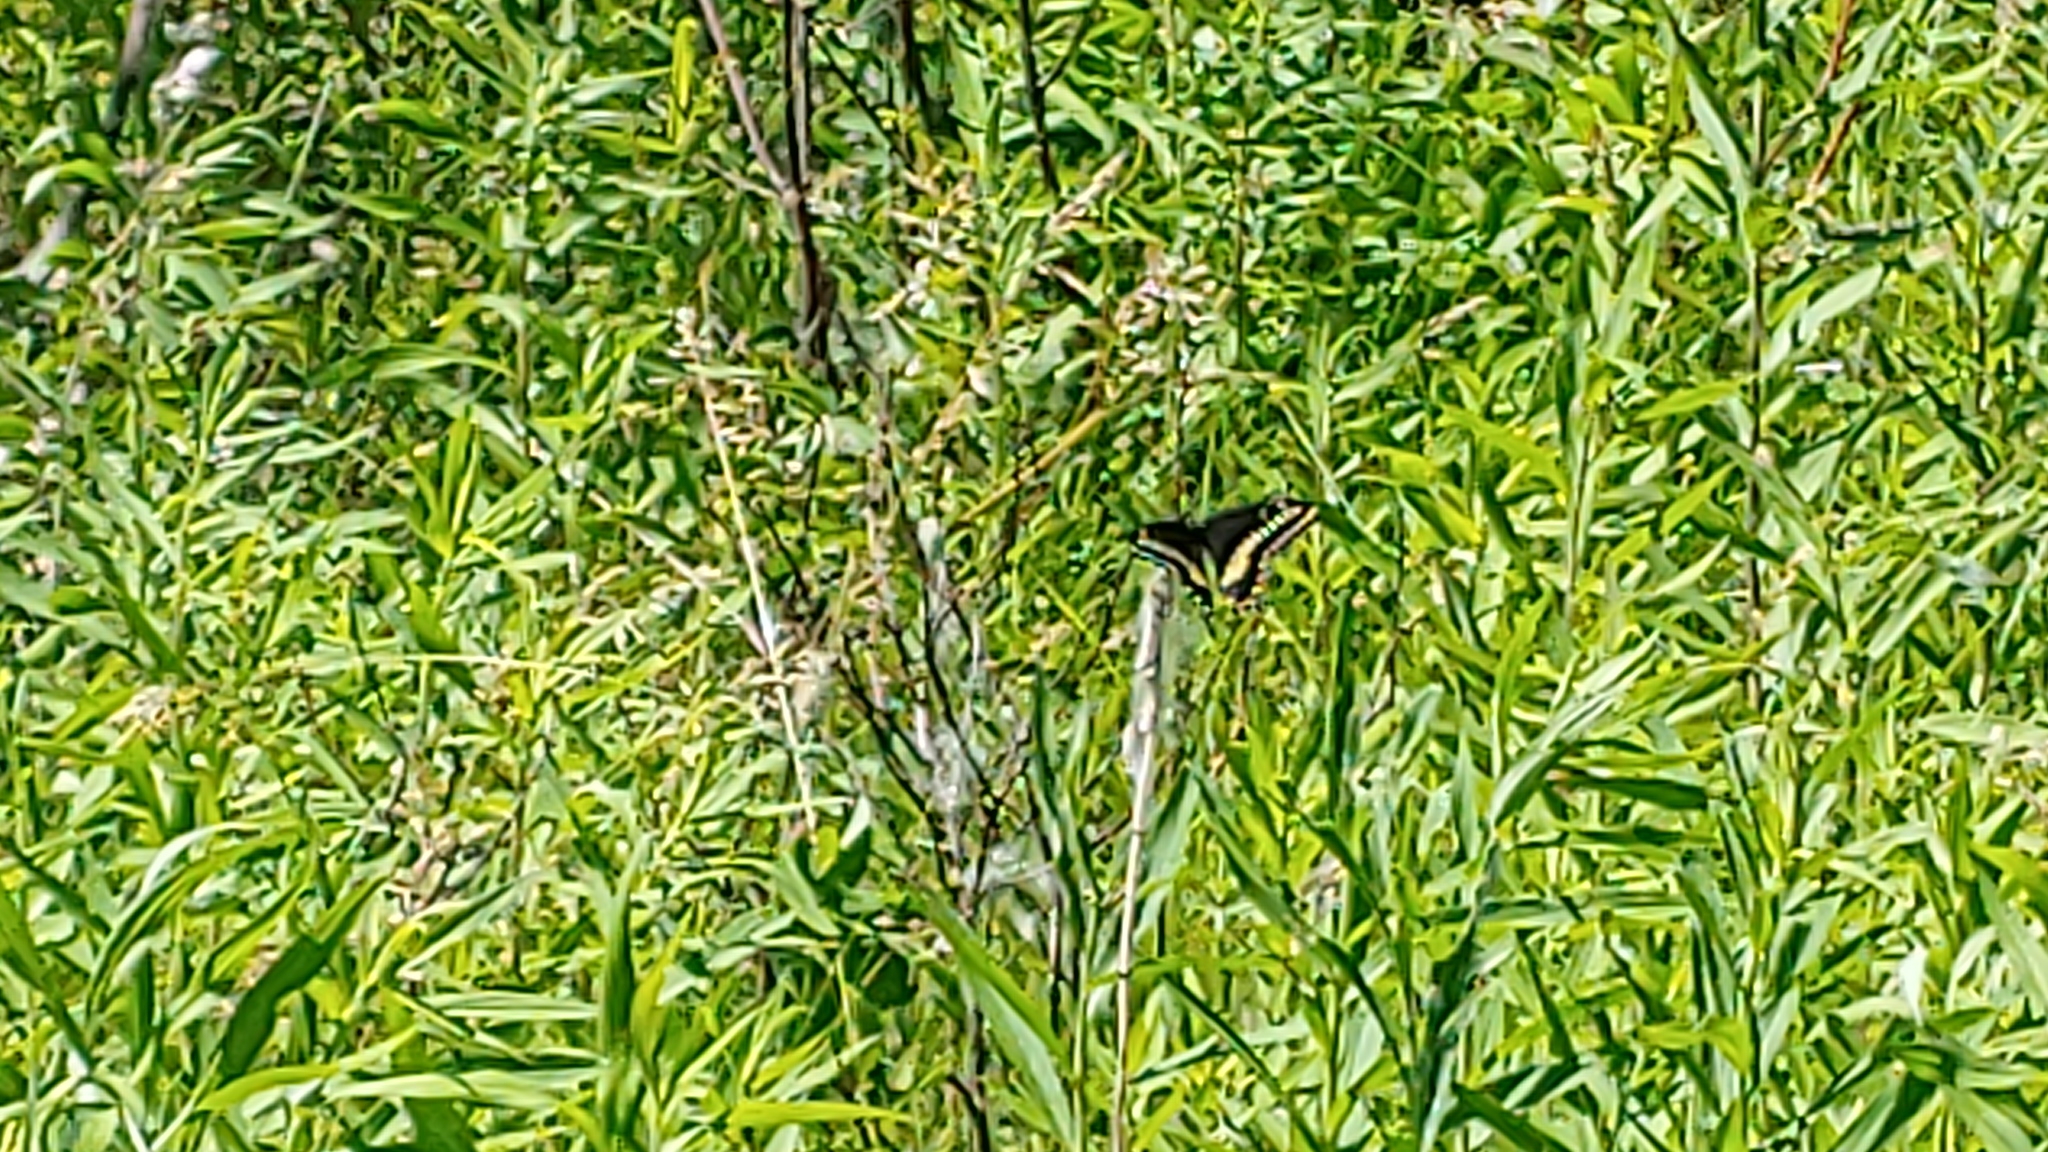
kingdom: Animalia
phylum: Arthropoda
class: Insecta
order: Lepidoptera
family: Papilionidae
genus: Papilio
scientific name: Papilio polyxenes
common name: Black swallowtail
